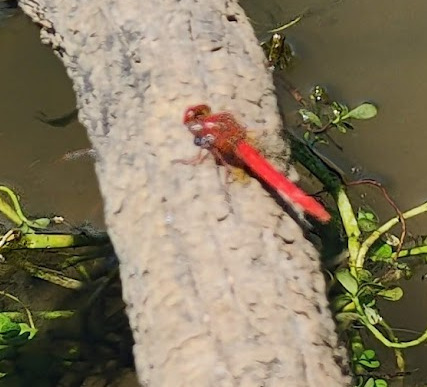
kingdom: Animalia
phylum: Arthropoda
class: Insecta
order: Odonata
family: Libellulidae
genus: Diplacodes
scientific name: Diplacodes haematodes
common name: Scarlet percher
